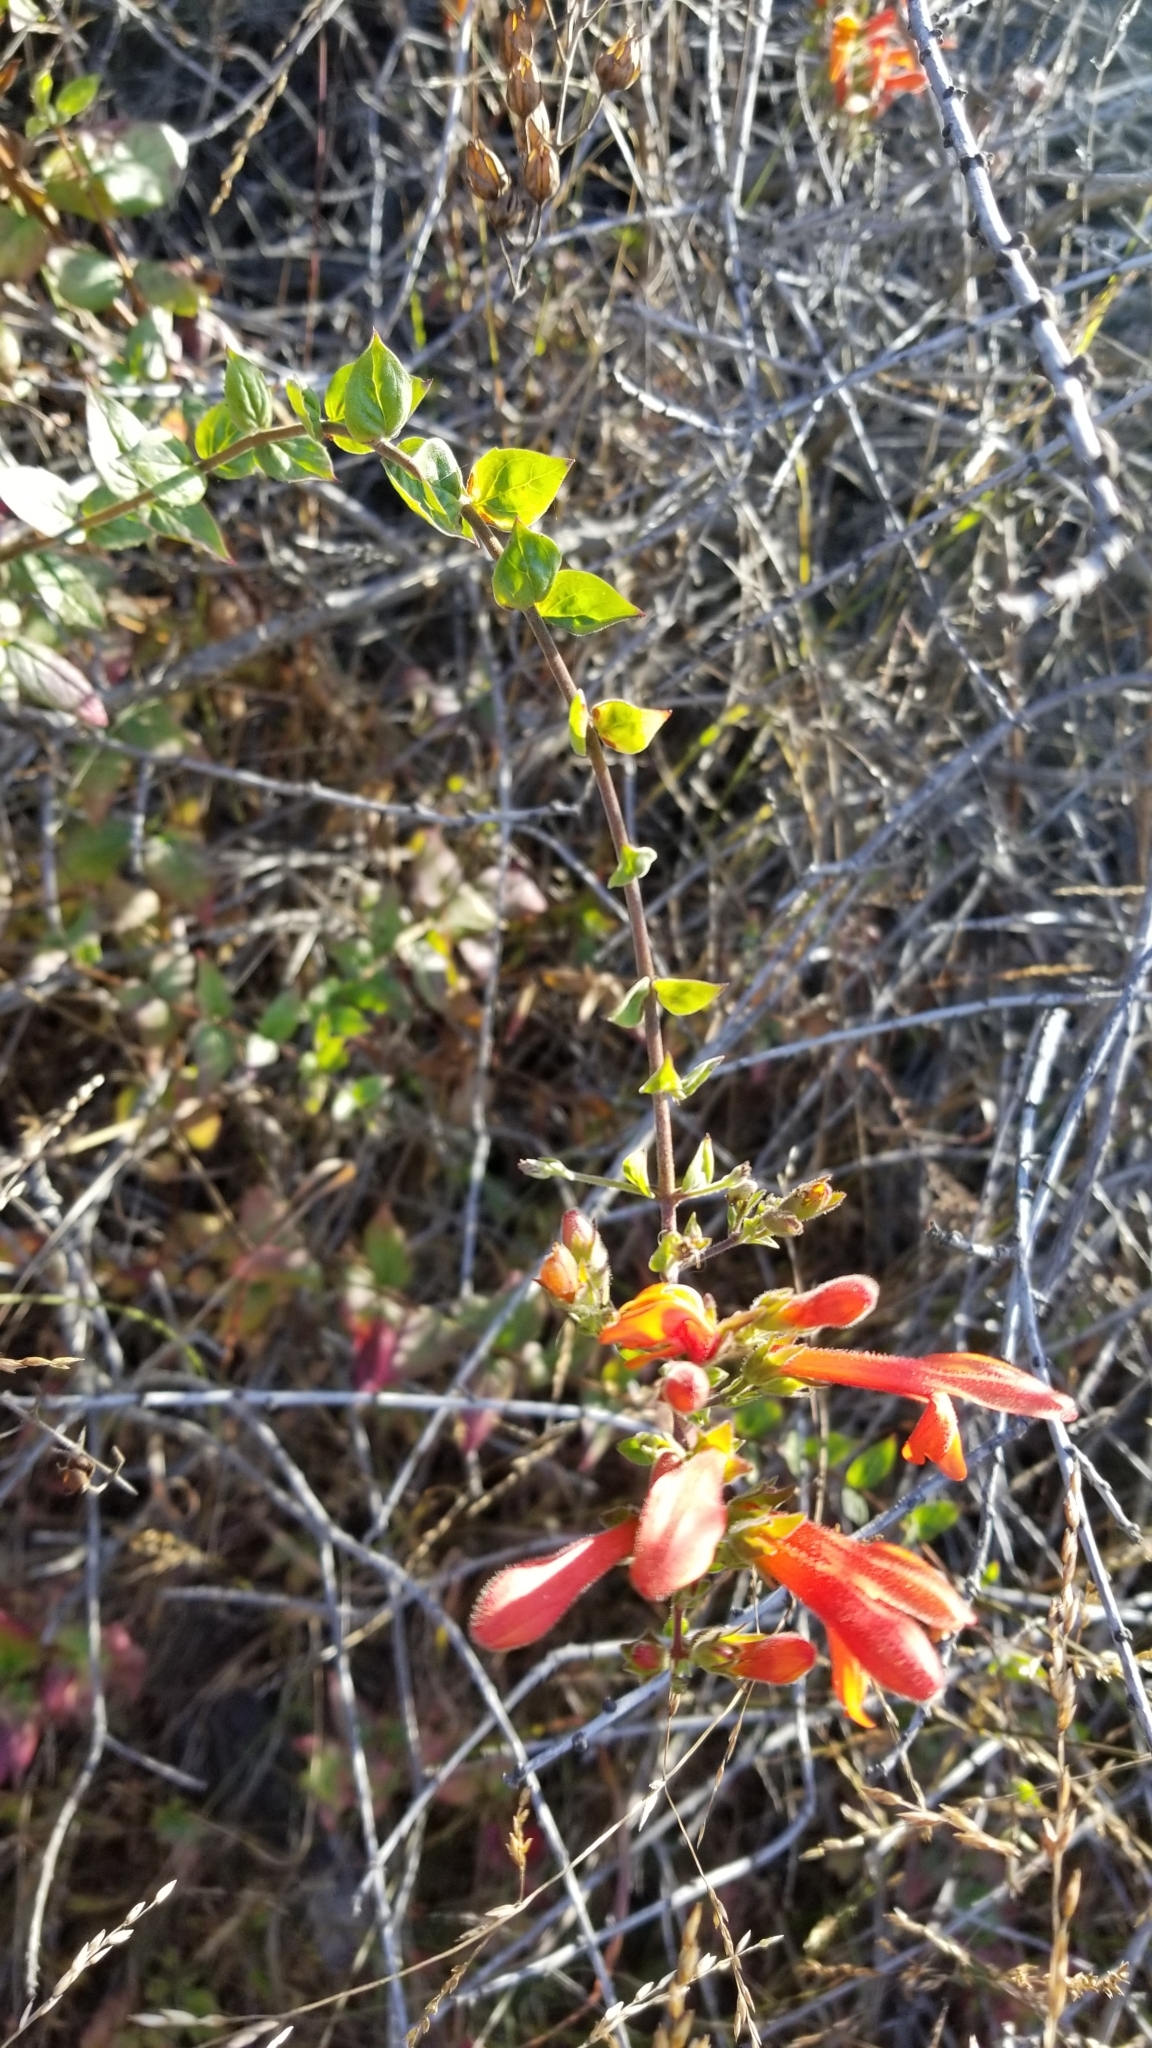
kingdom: Plantae
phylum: Tracheophyta
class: Magnoliopsida
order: Lamiales
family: Plantaginaceae
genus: Keckiella
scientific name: Keckiella cordifolia
